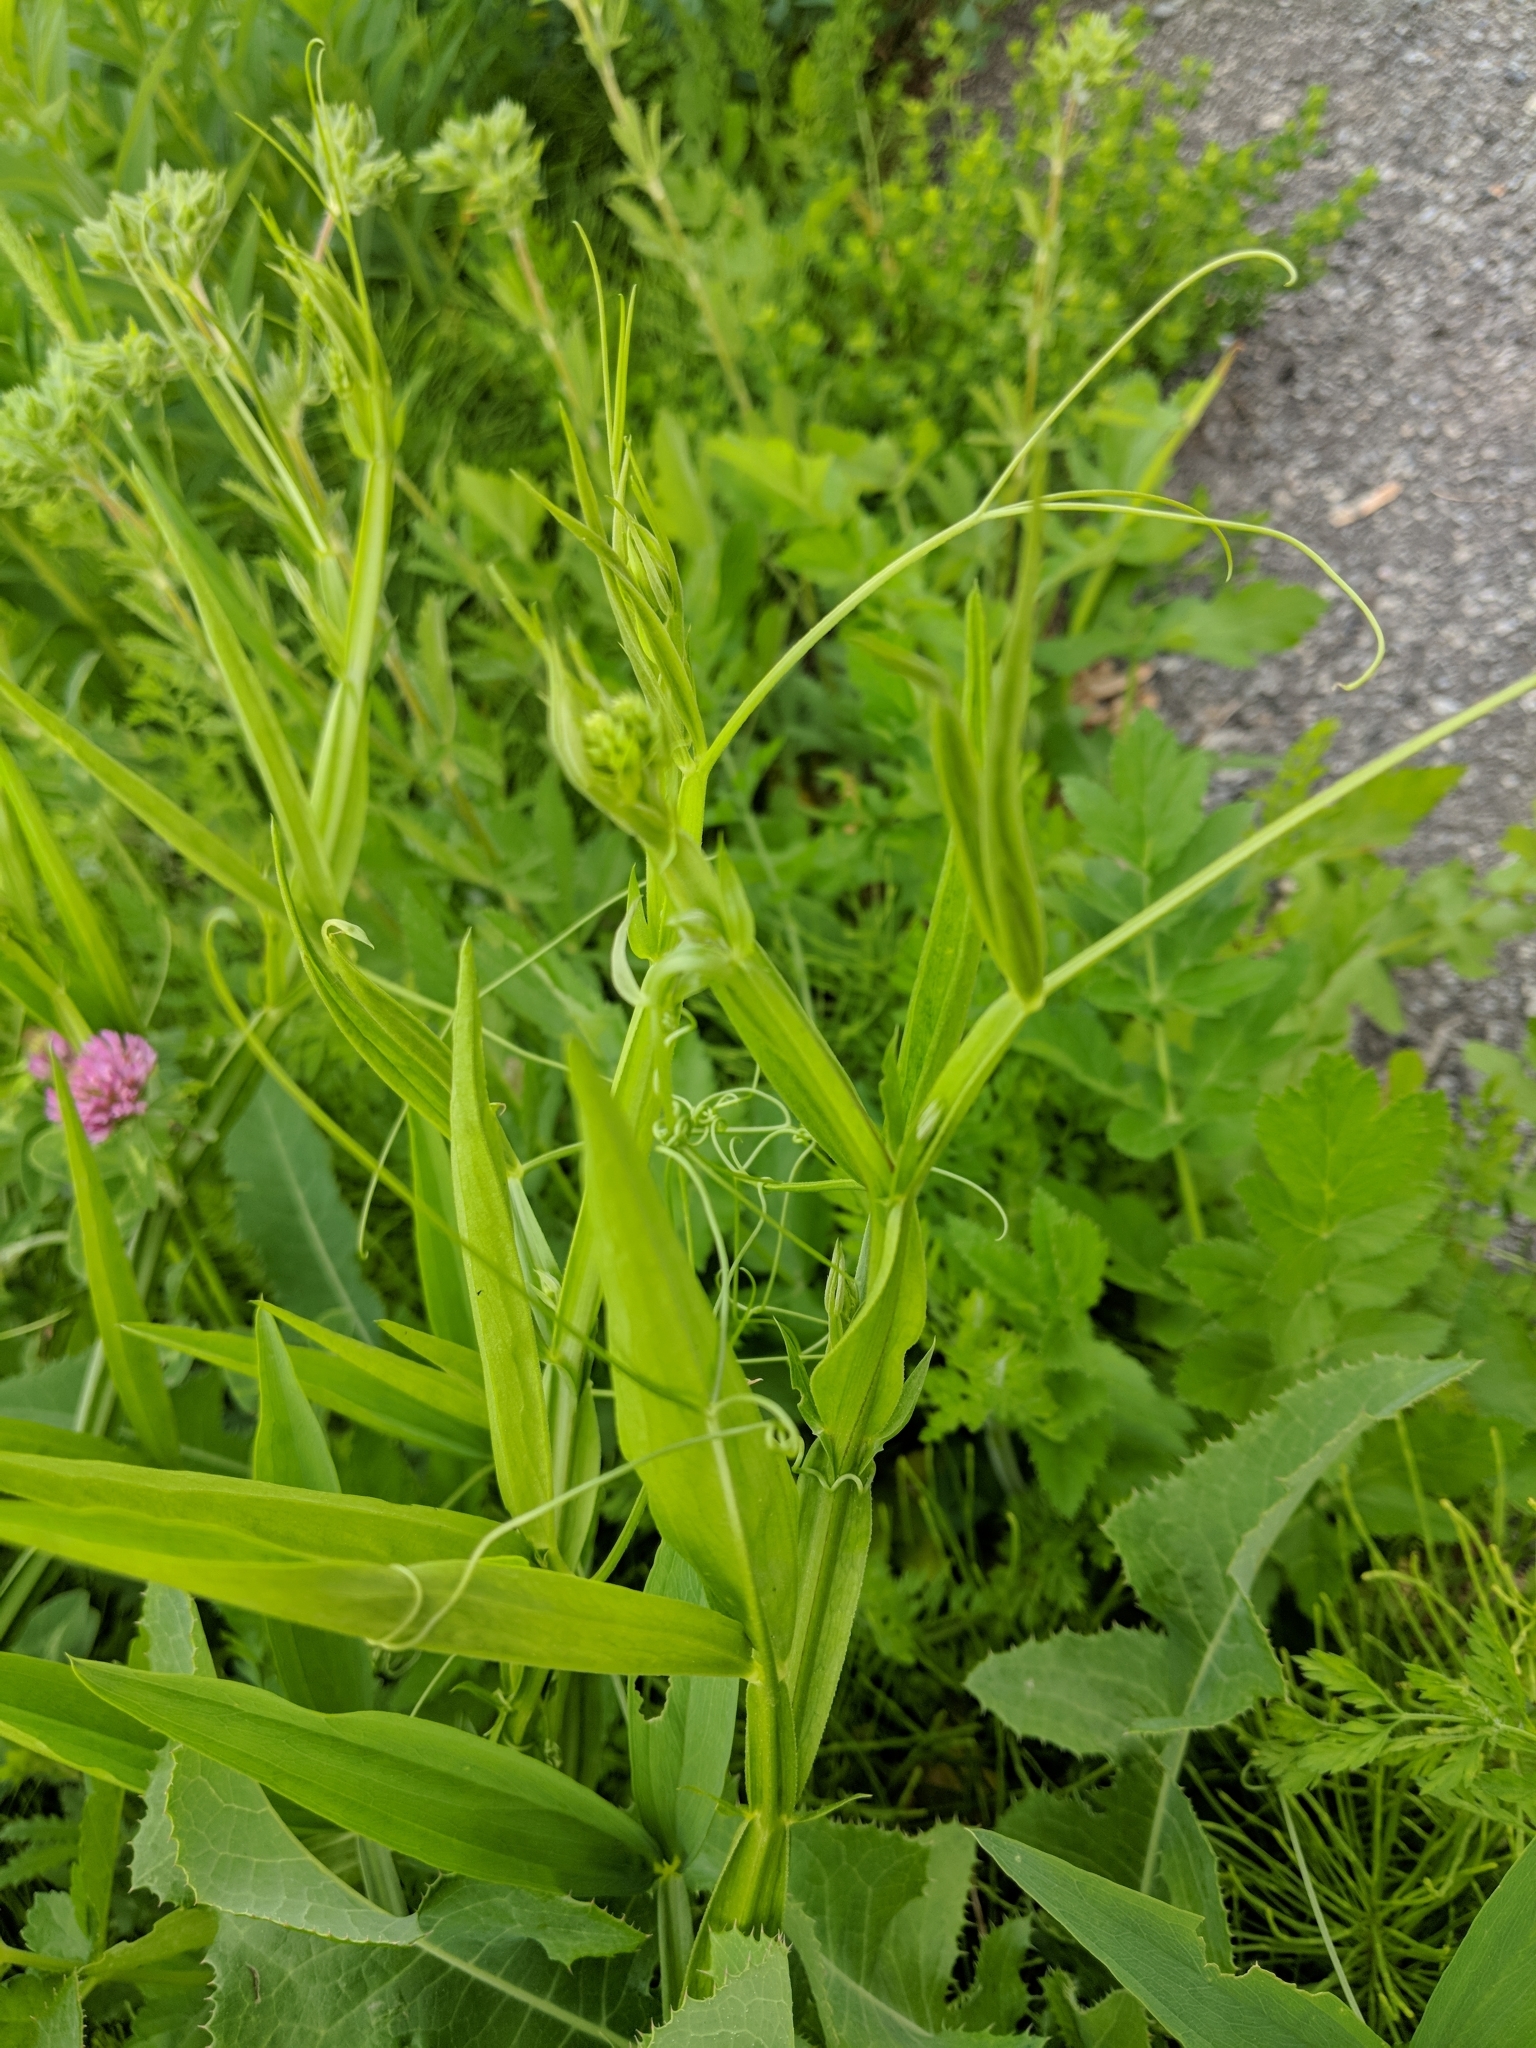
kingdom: Plantae
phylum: Tracheophyta
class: Magnoliopsida
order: Fabales
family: Fabaceae
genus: Lathyrus
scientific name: Lathyrus latifolius
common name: Perennial pea
